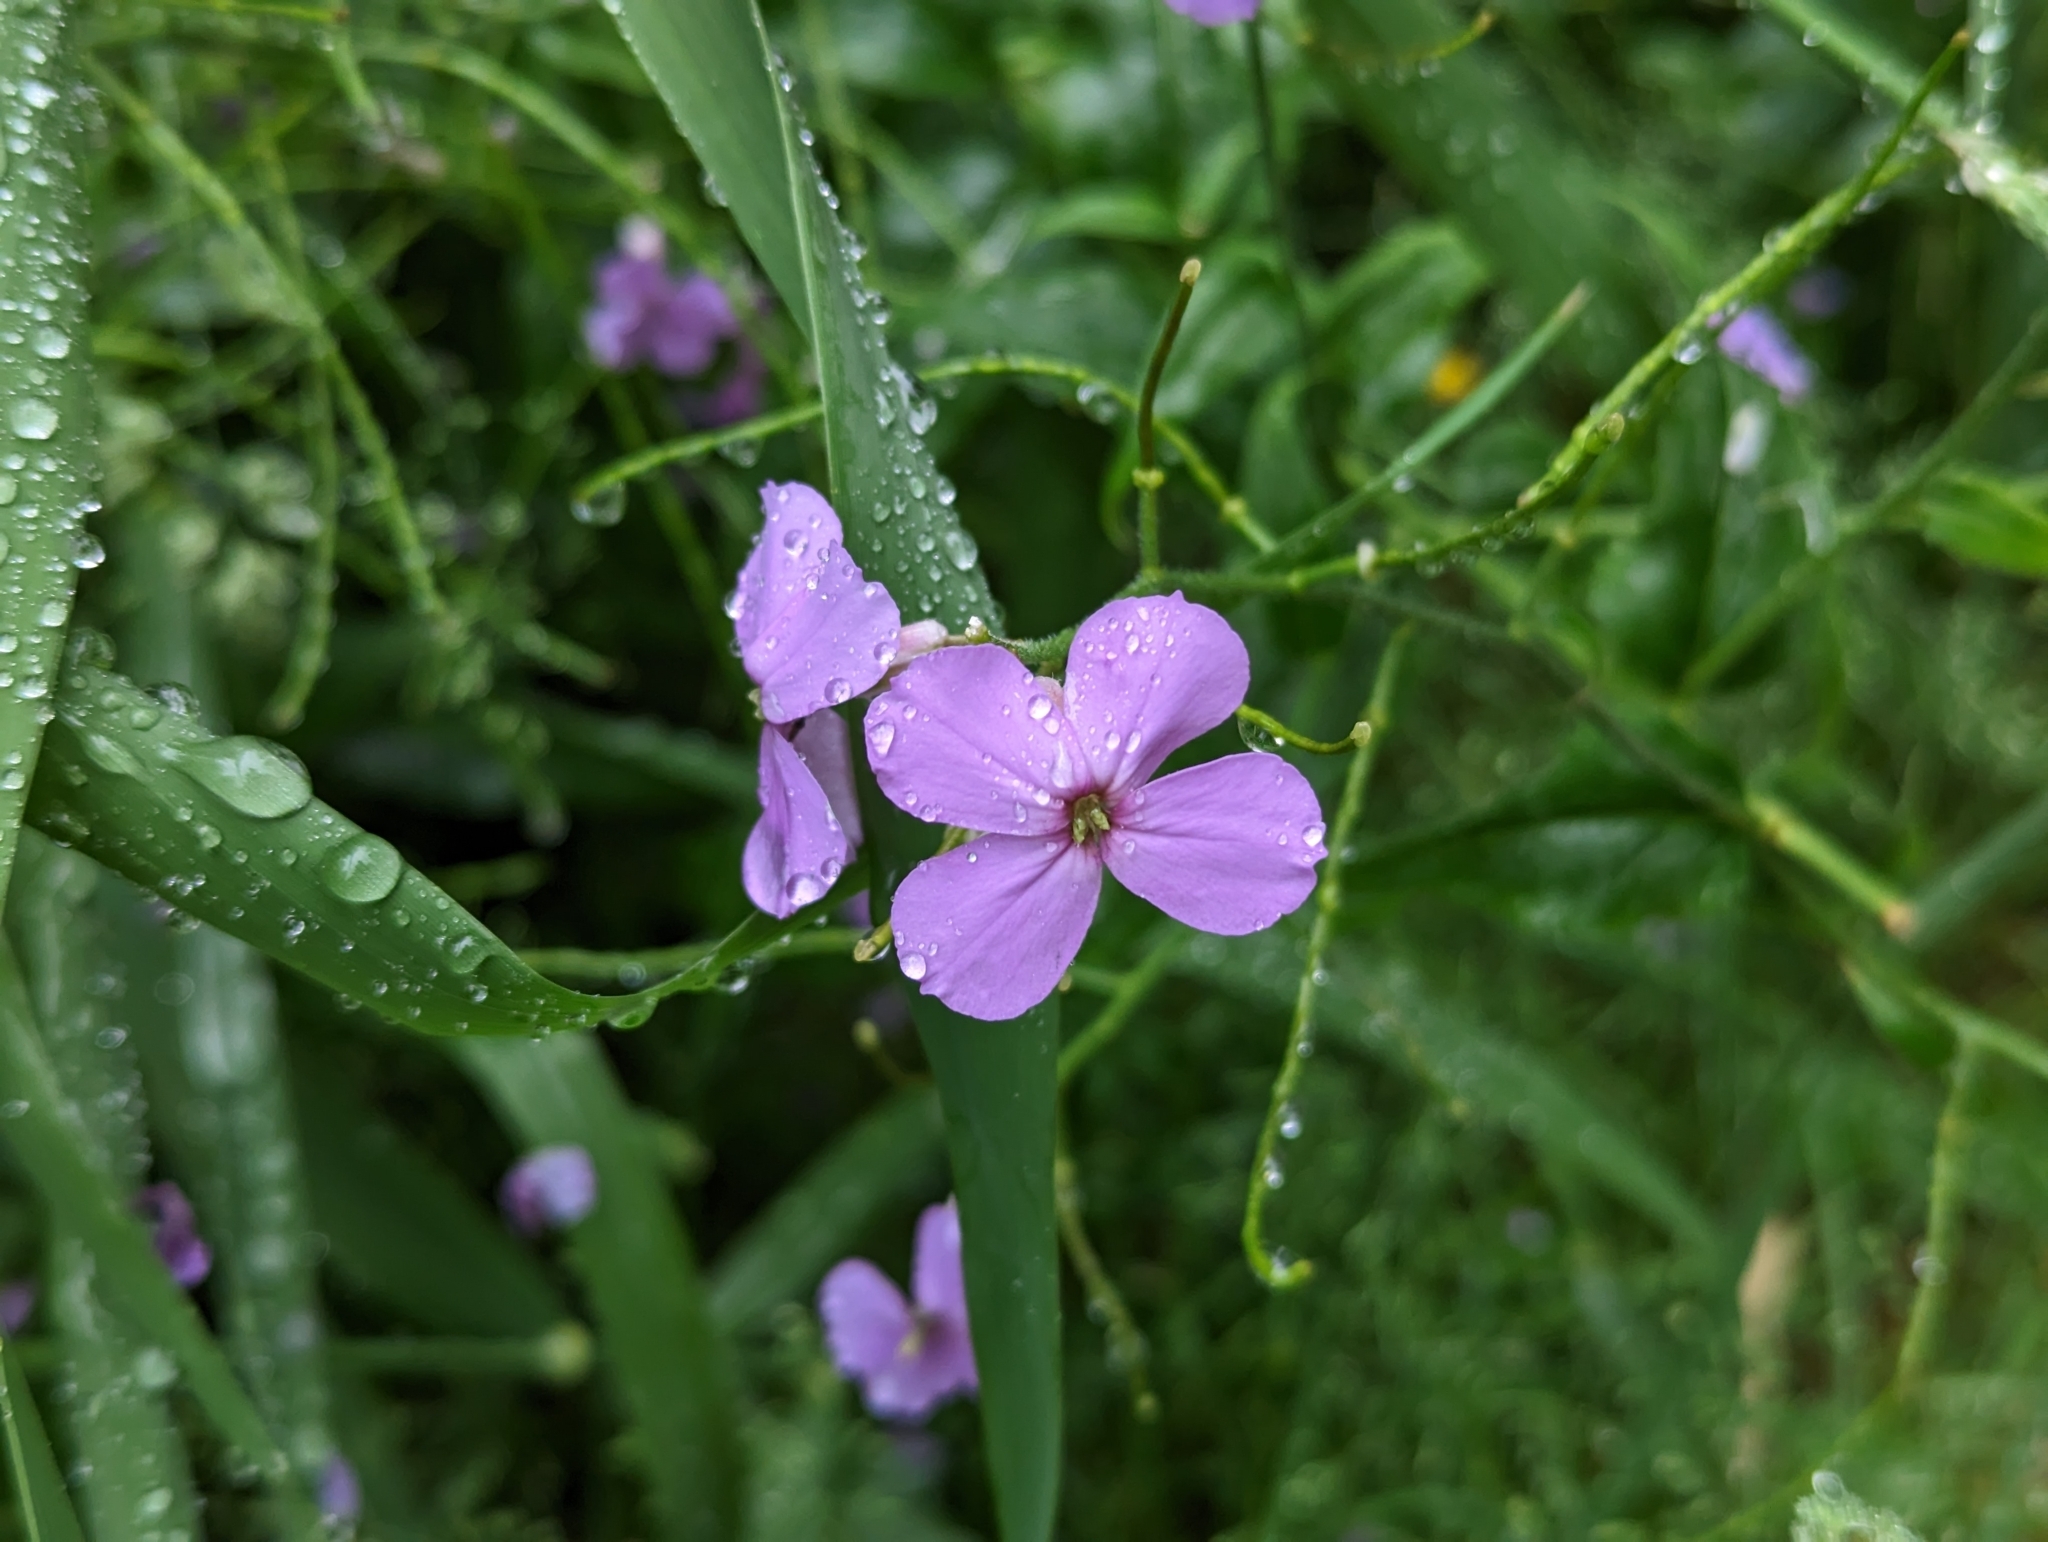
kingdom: Plantae
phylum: Tracheophyta
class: Magnoliopsida
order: Brassicales
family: Brassicaceae
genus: Hesperis
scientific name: Hesperis matronalis
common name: Dame's-violet
